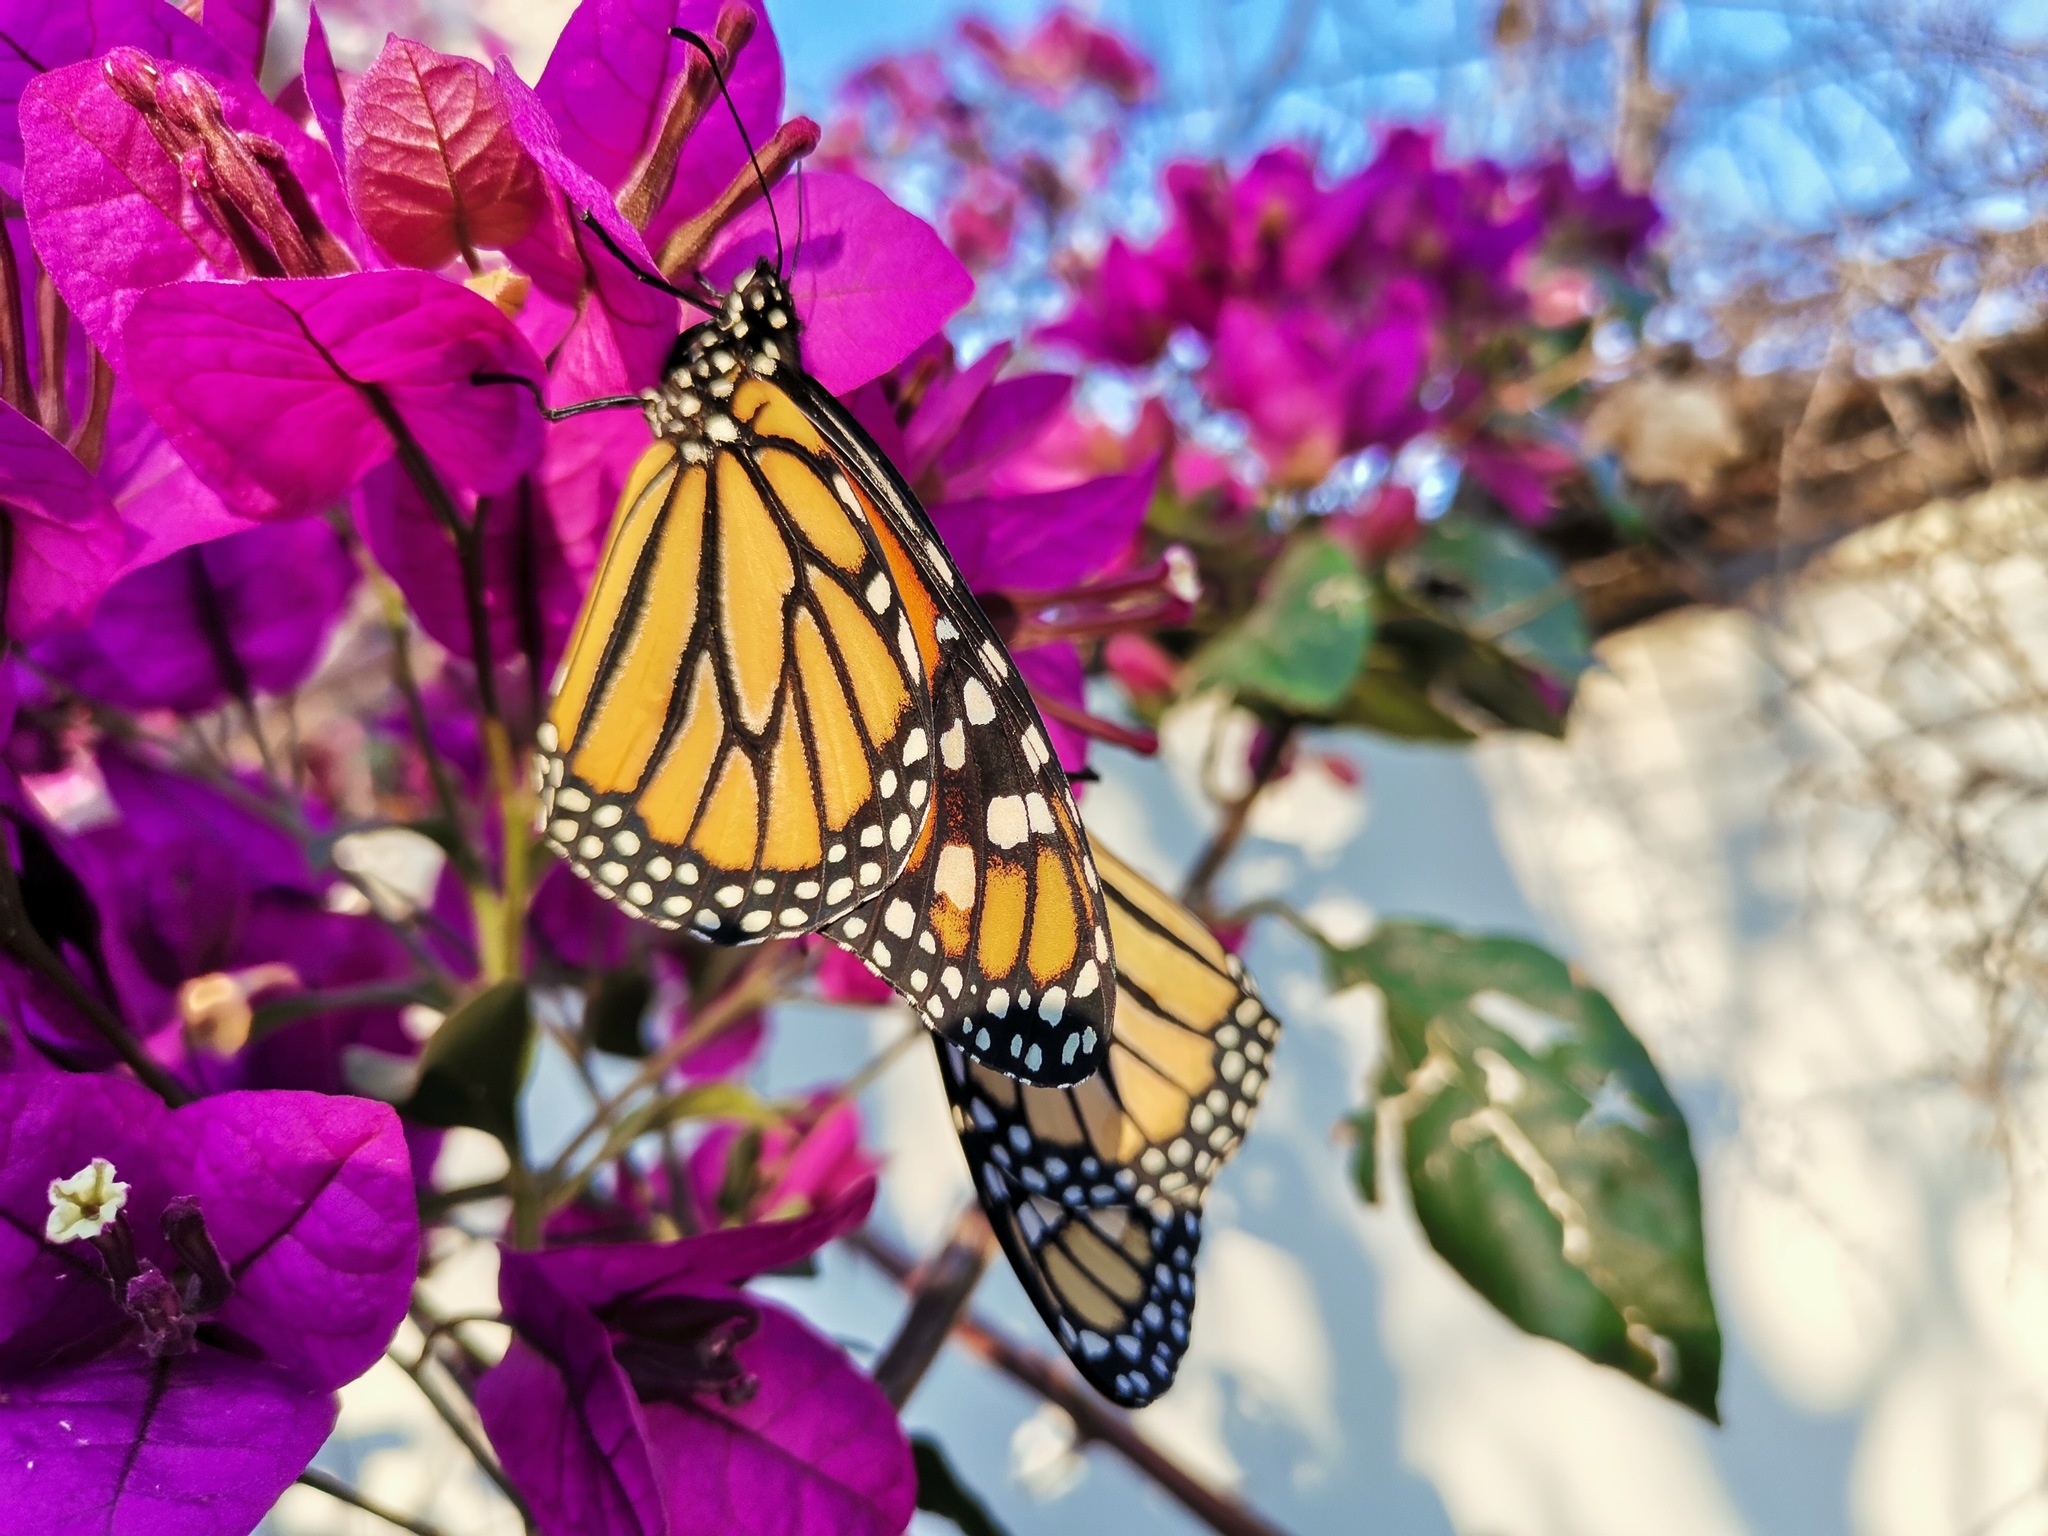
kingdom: Animalia
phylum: Arthropoda
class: Insecta
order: Lepidoptera
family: Nymphalidae
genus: Danaus
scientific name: Danaus plexippus
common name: Monarch
